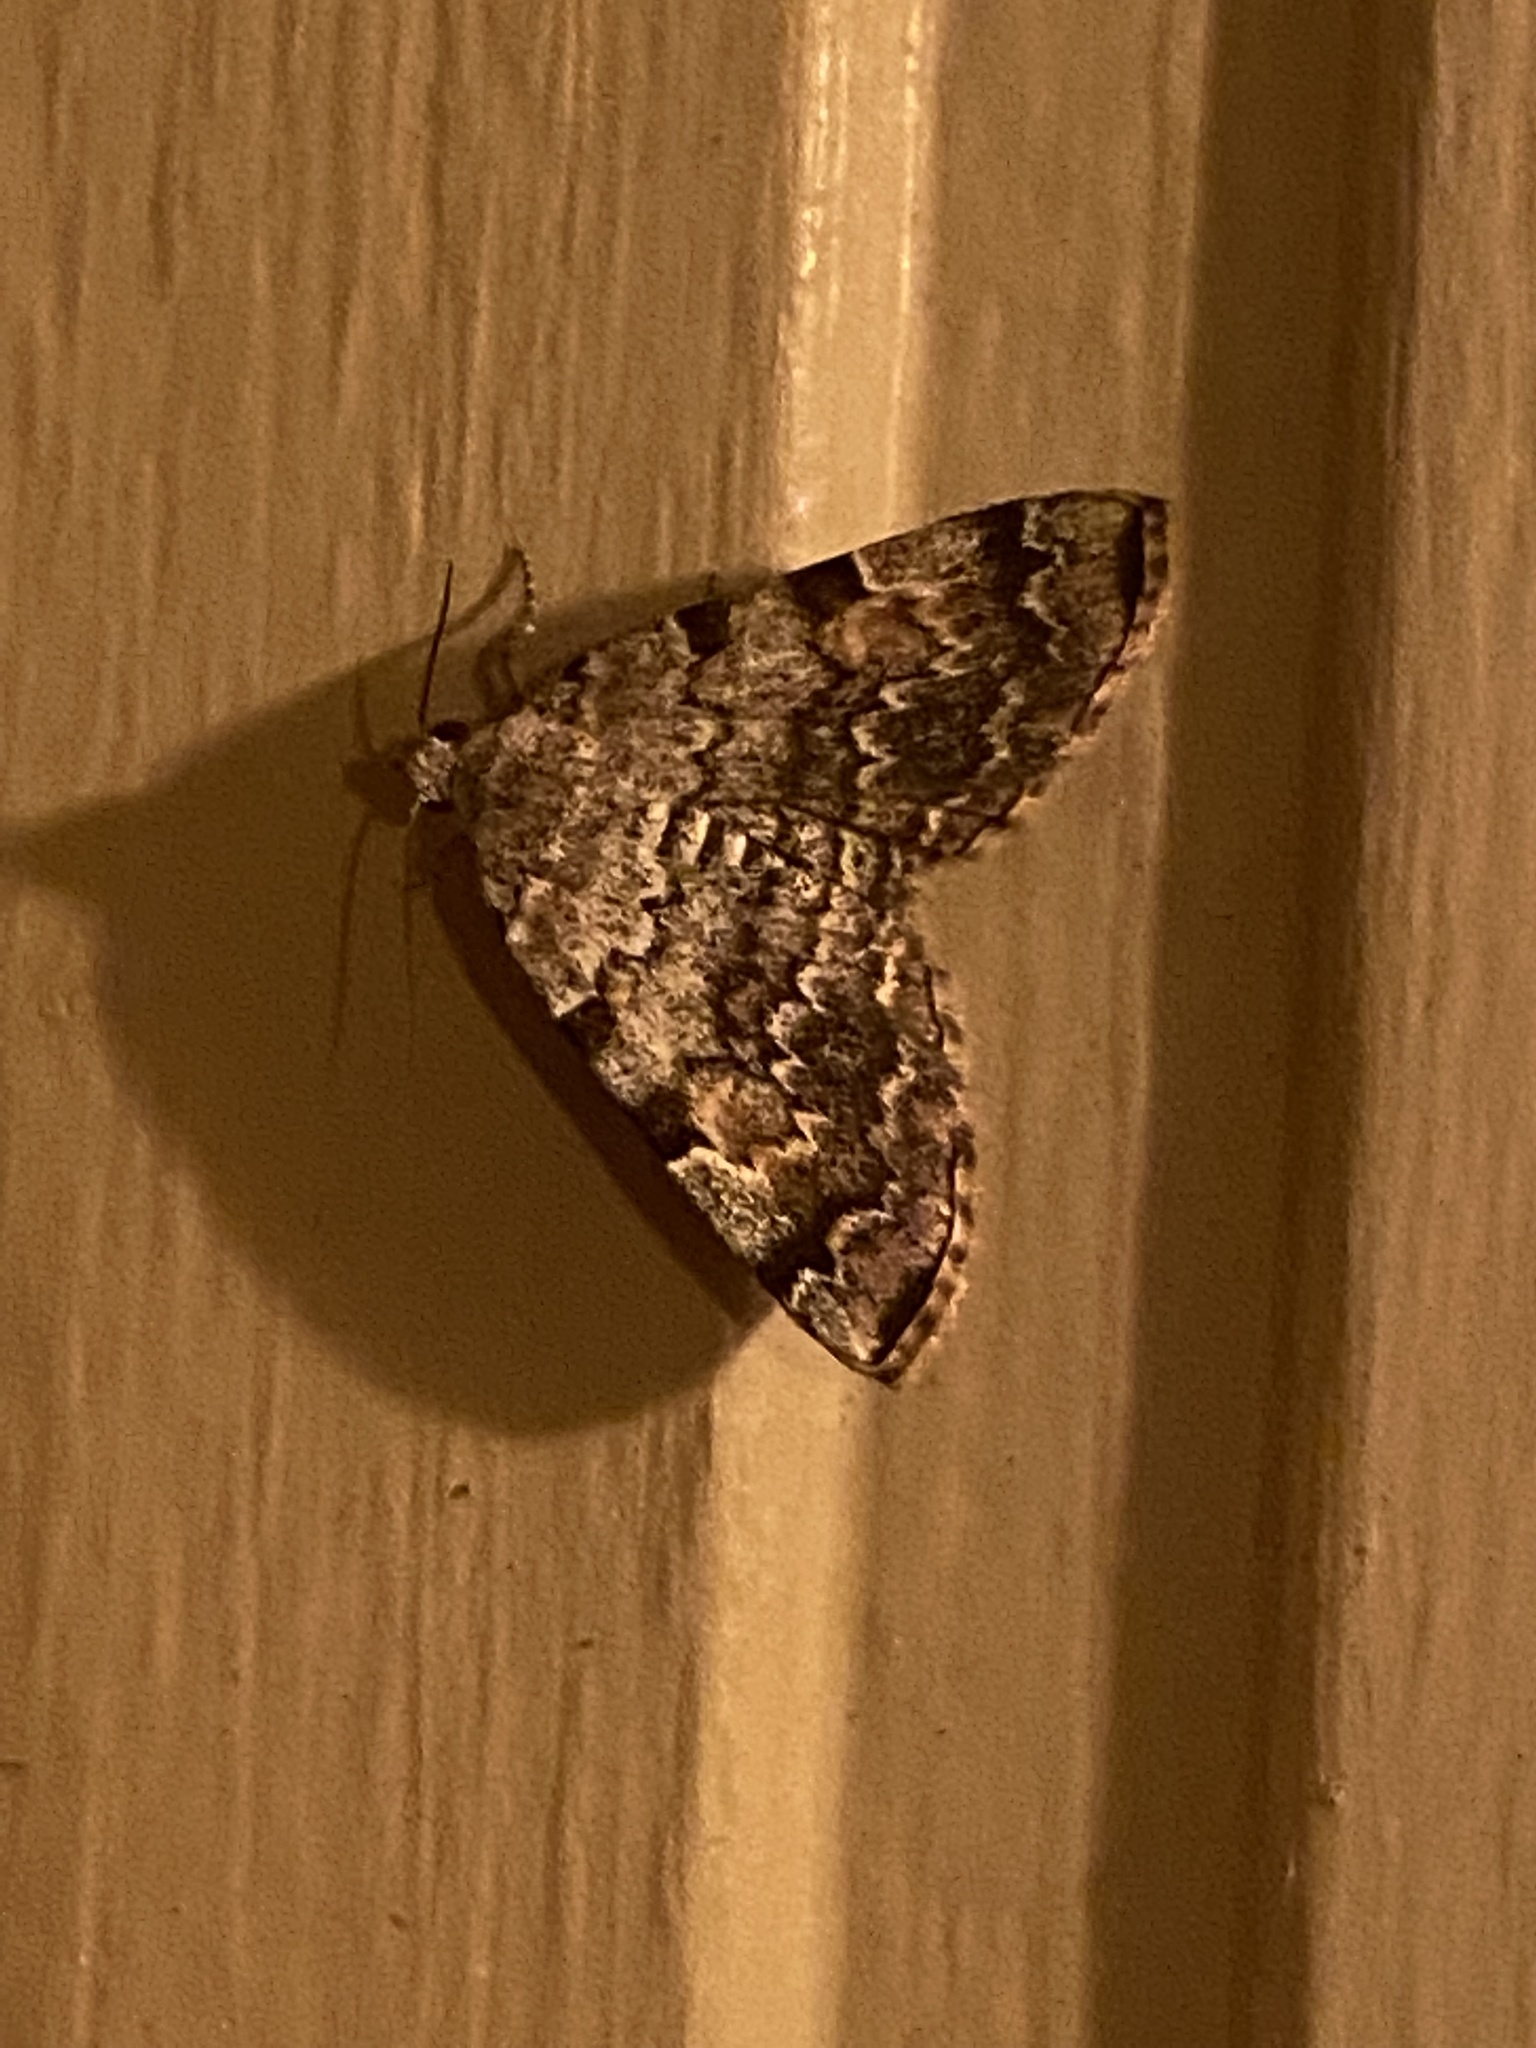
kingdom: Animalia
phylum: Arthropoda
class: Insecta
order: Lepidoptera
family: Erebidae
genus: Idia
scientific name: Idia americalis
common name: American idia moth
